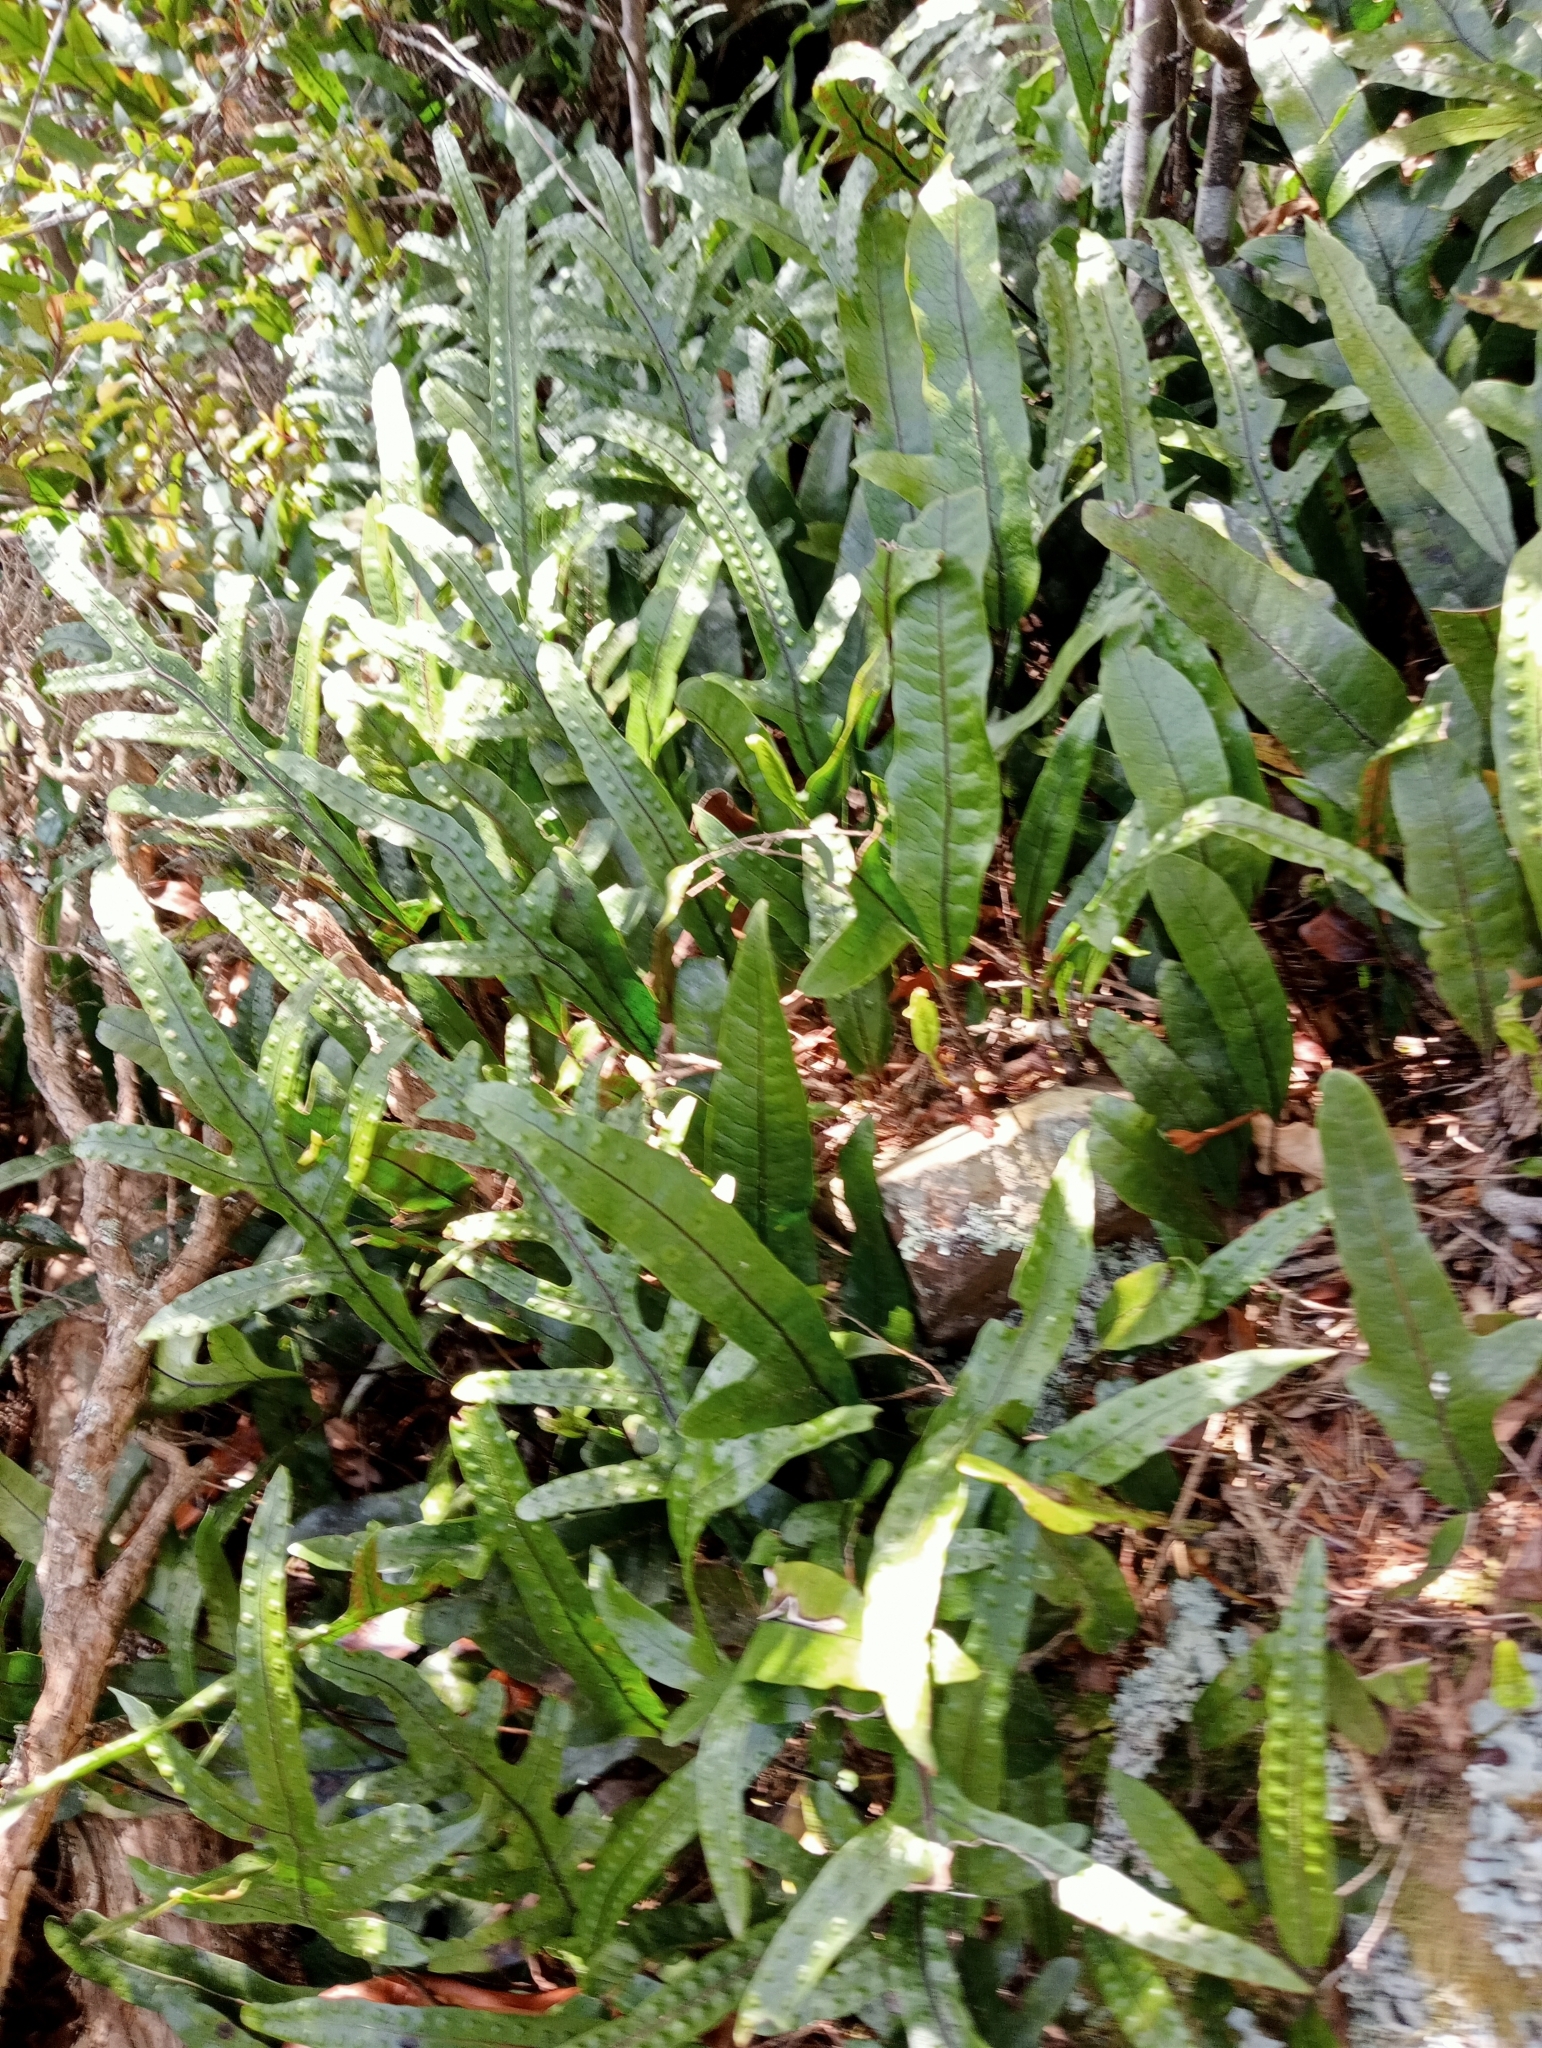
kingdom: Plantae
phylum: Tracheophyta
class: Polypodiopsida
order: Polypodiales
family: Polypodiaceae
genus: Lecanopteris
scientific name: Lecanopteris pustulata
